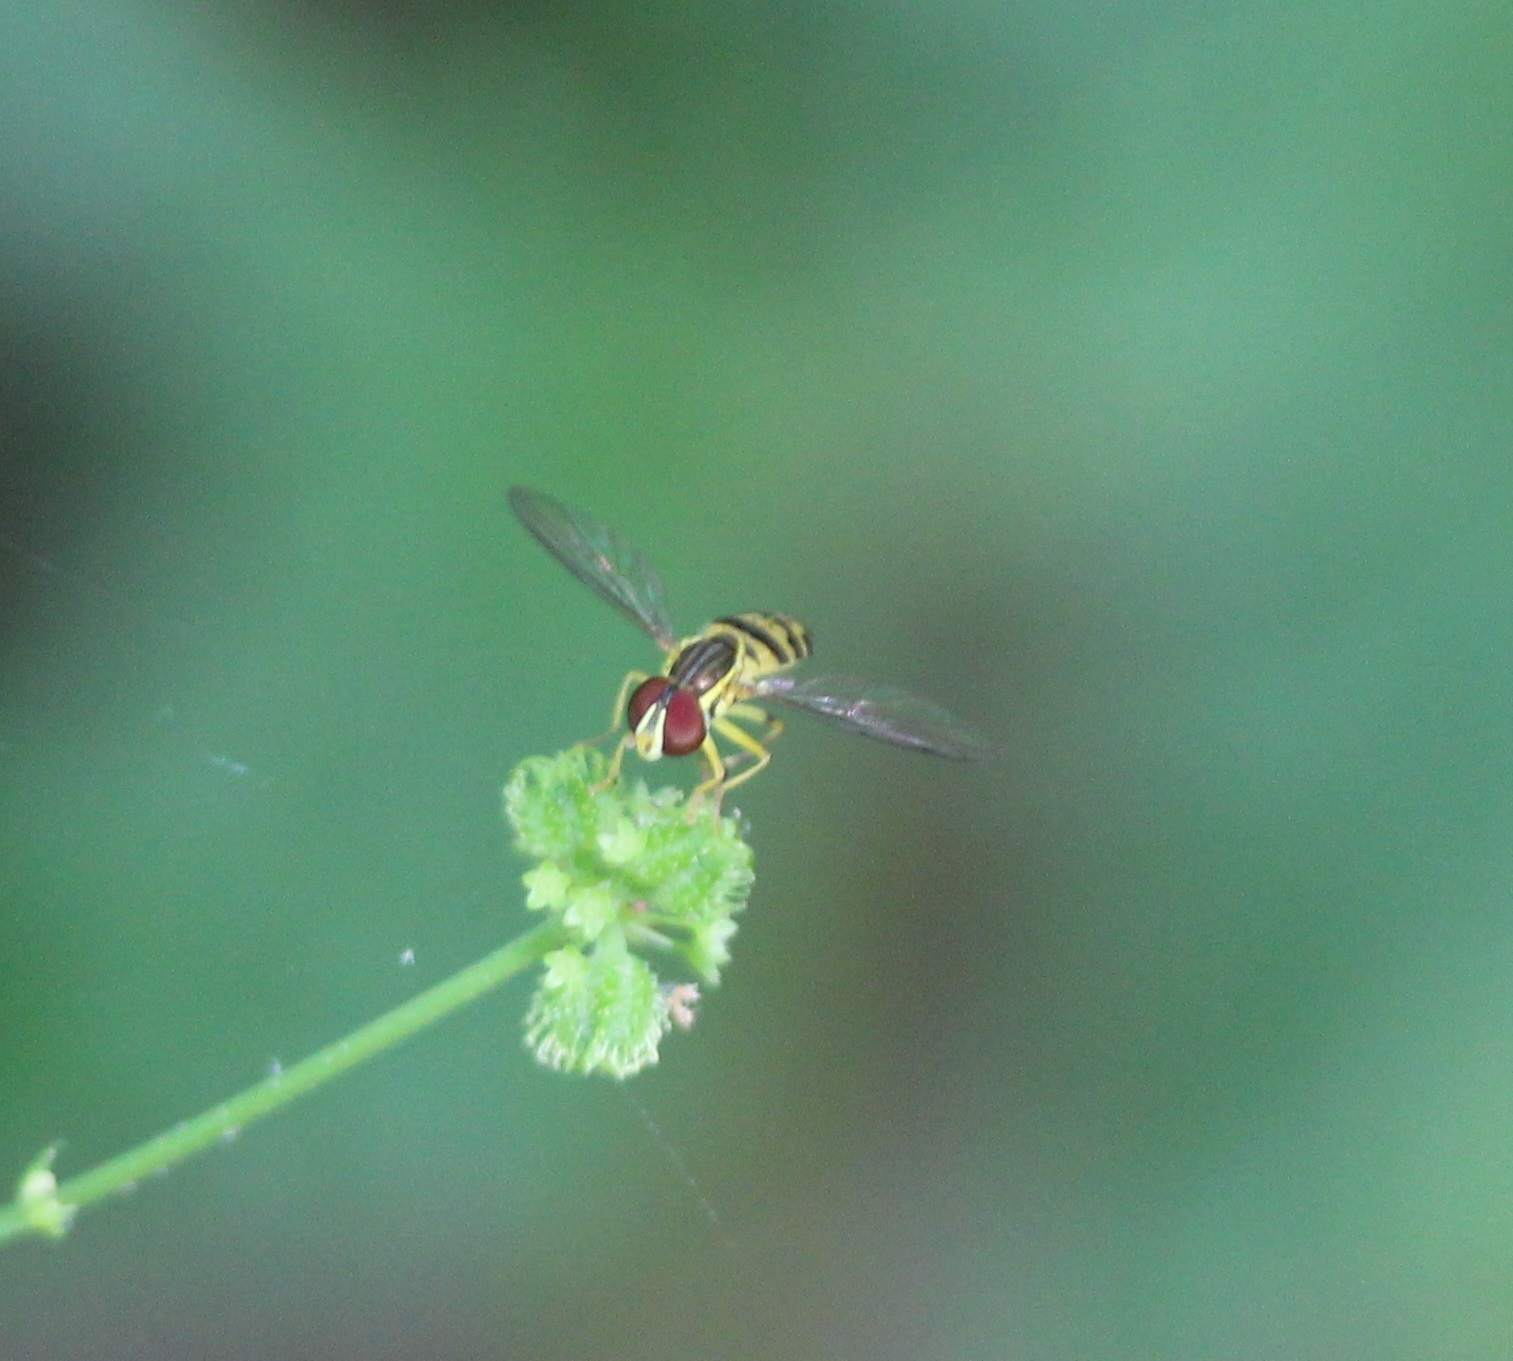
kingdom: Animalia
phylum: Arthropoda
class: Insecta
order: Diptera
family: Syrphidae
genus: Toxomerus
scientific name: Toxomerus geminatus
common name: Eastern calligrapher
